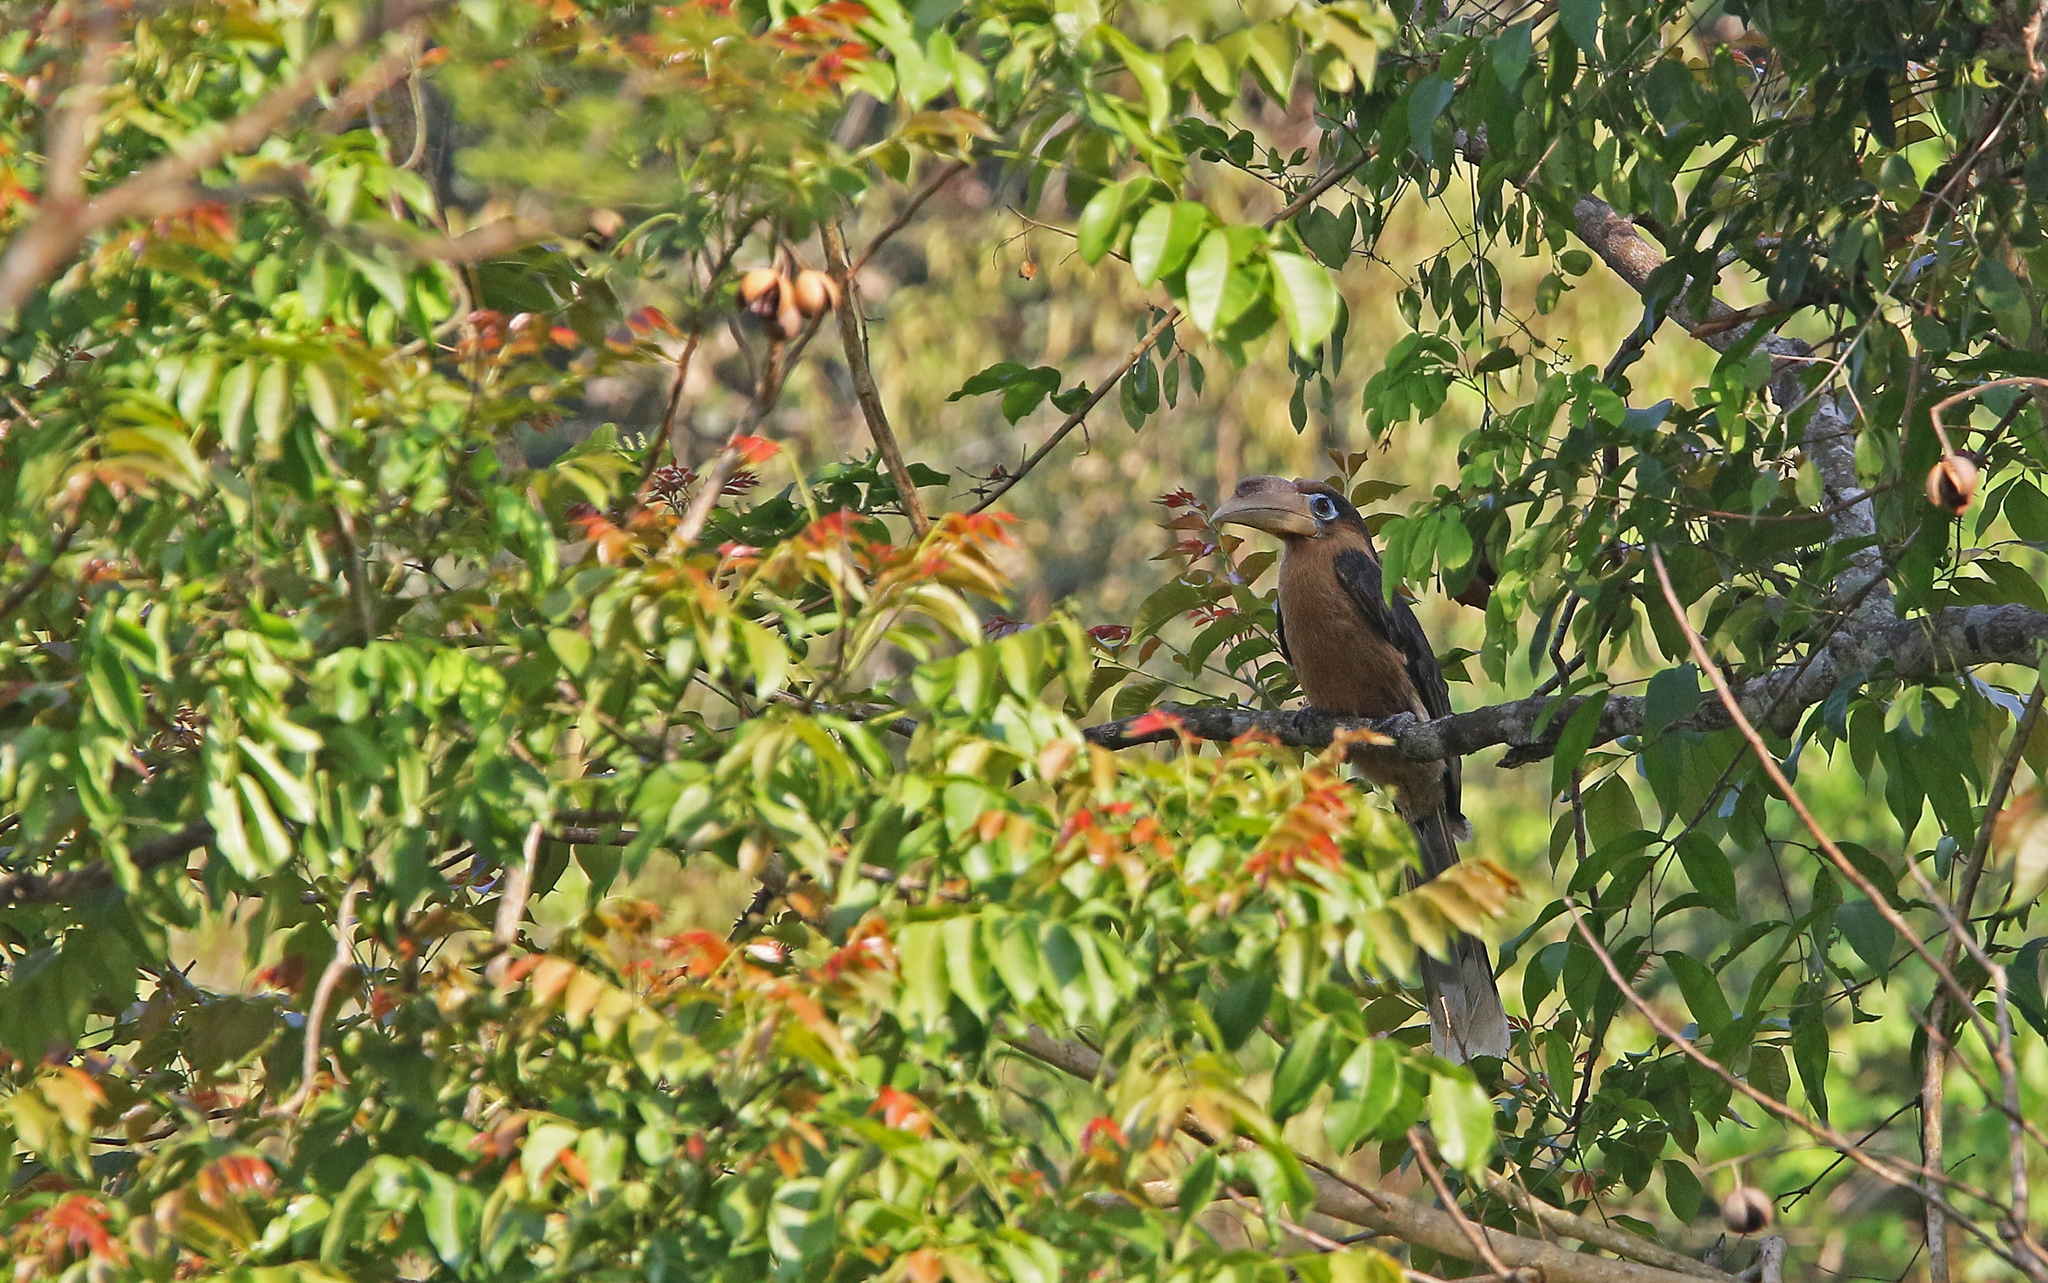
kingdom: Animalia
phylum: Chordata
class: Aves
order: Bucerotiformes
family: Bucerotidae
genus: Anorrhinus
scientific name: Anorrhinus tickelli
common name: Tickell's brown hornbill
